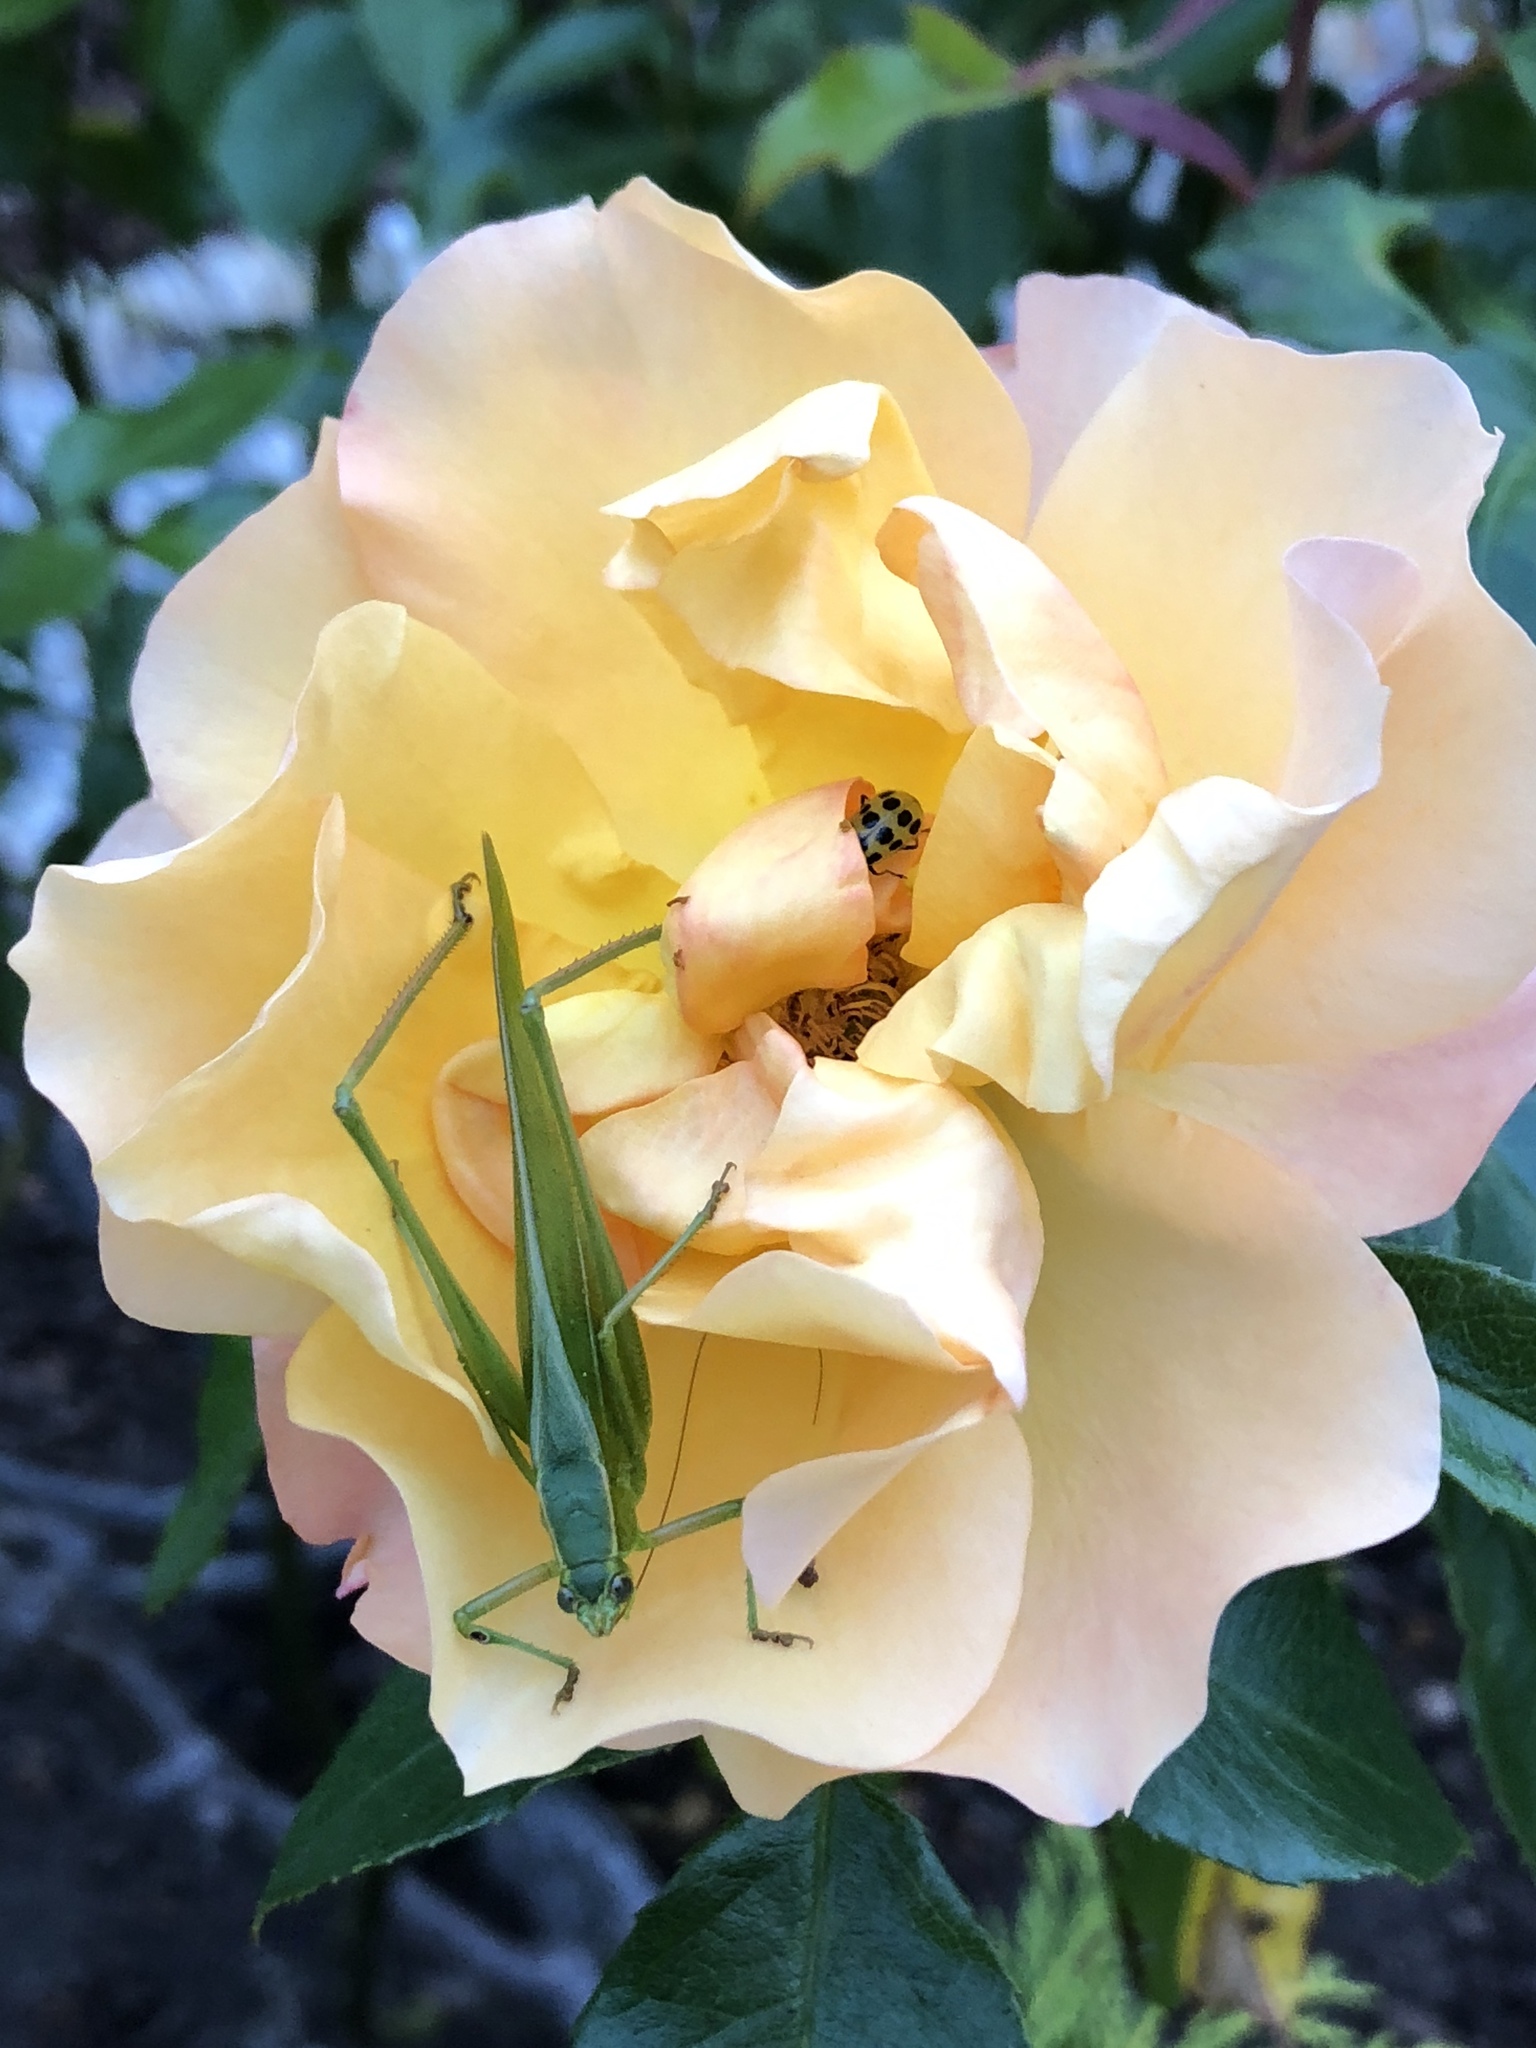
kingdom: Animalia
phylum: Arthropoda
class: Insecta
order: Orthoptera
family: Tettigoniidae
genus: Scudderia
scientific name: Scudderia
